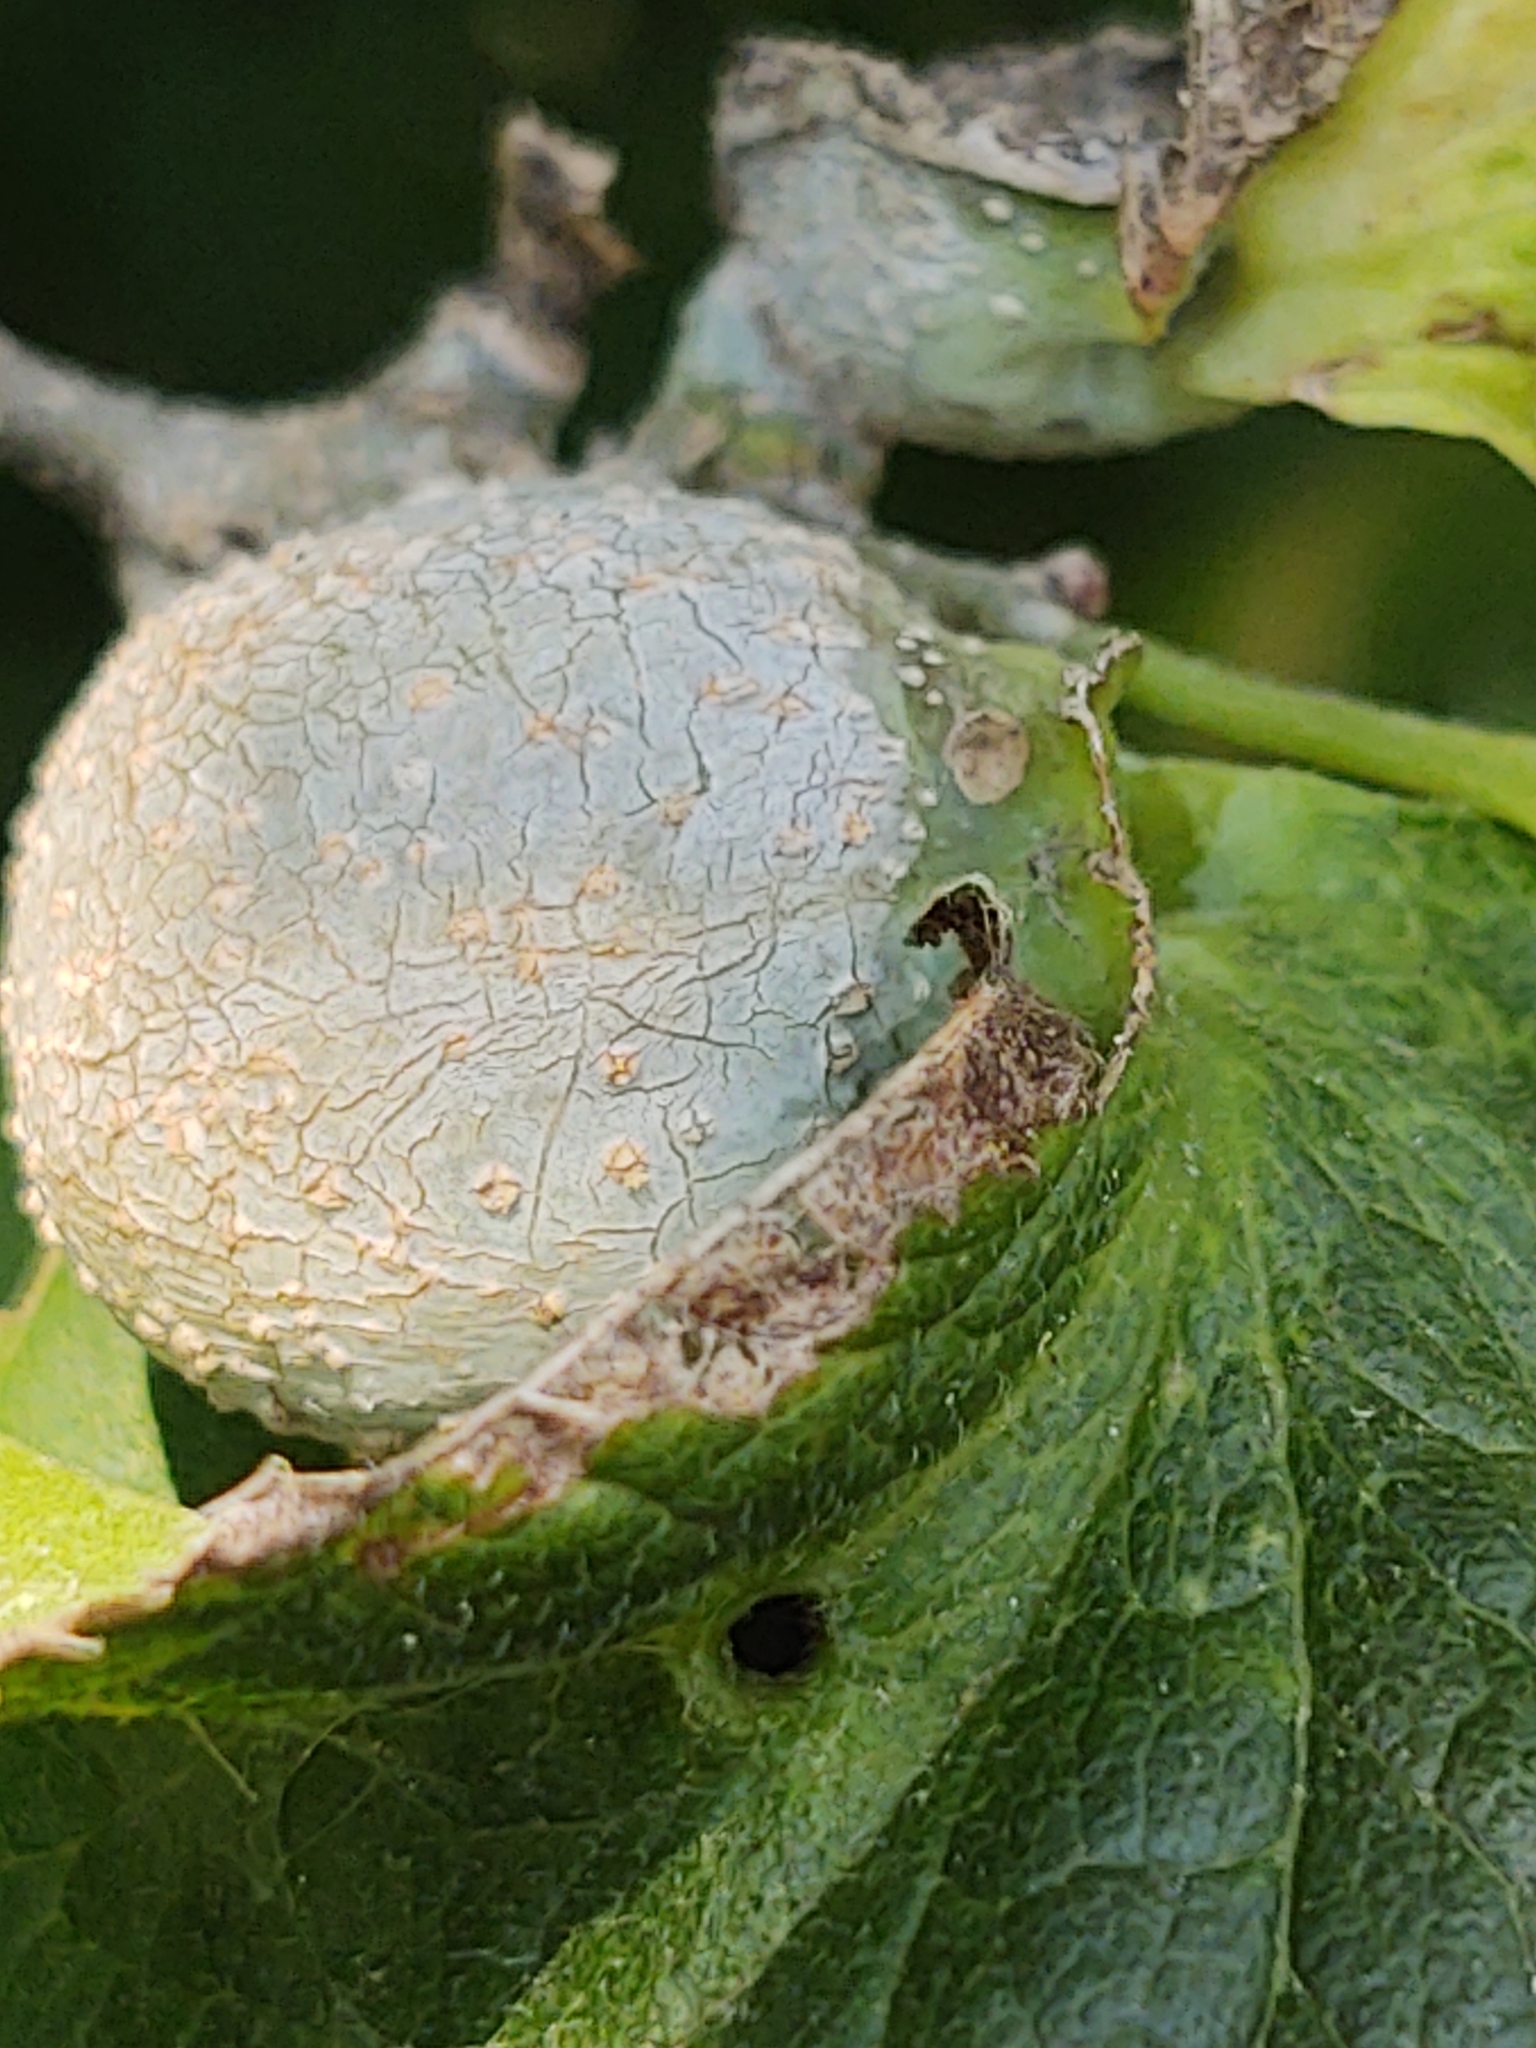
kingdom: Animalia
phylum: Arthropoda
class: Insecta
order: Hemiptera
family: Aphalaridae
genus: Pachypsylla
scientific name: Pachypsylla venusta
